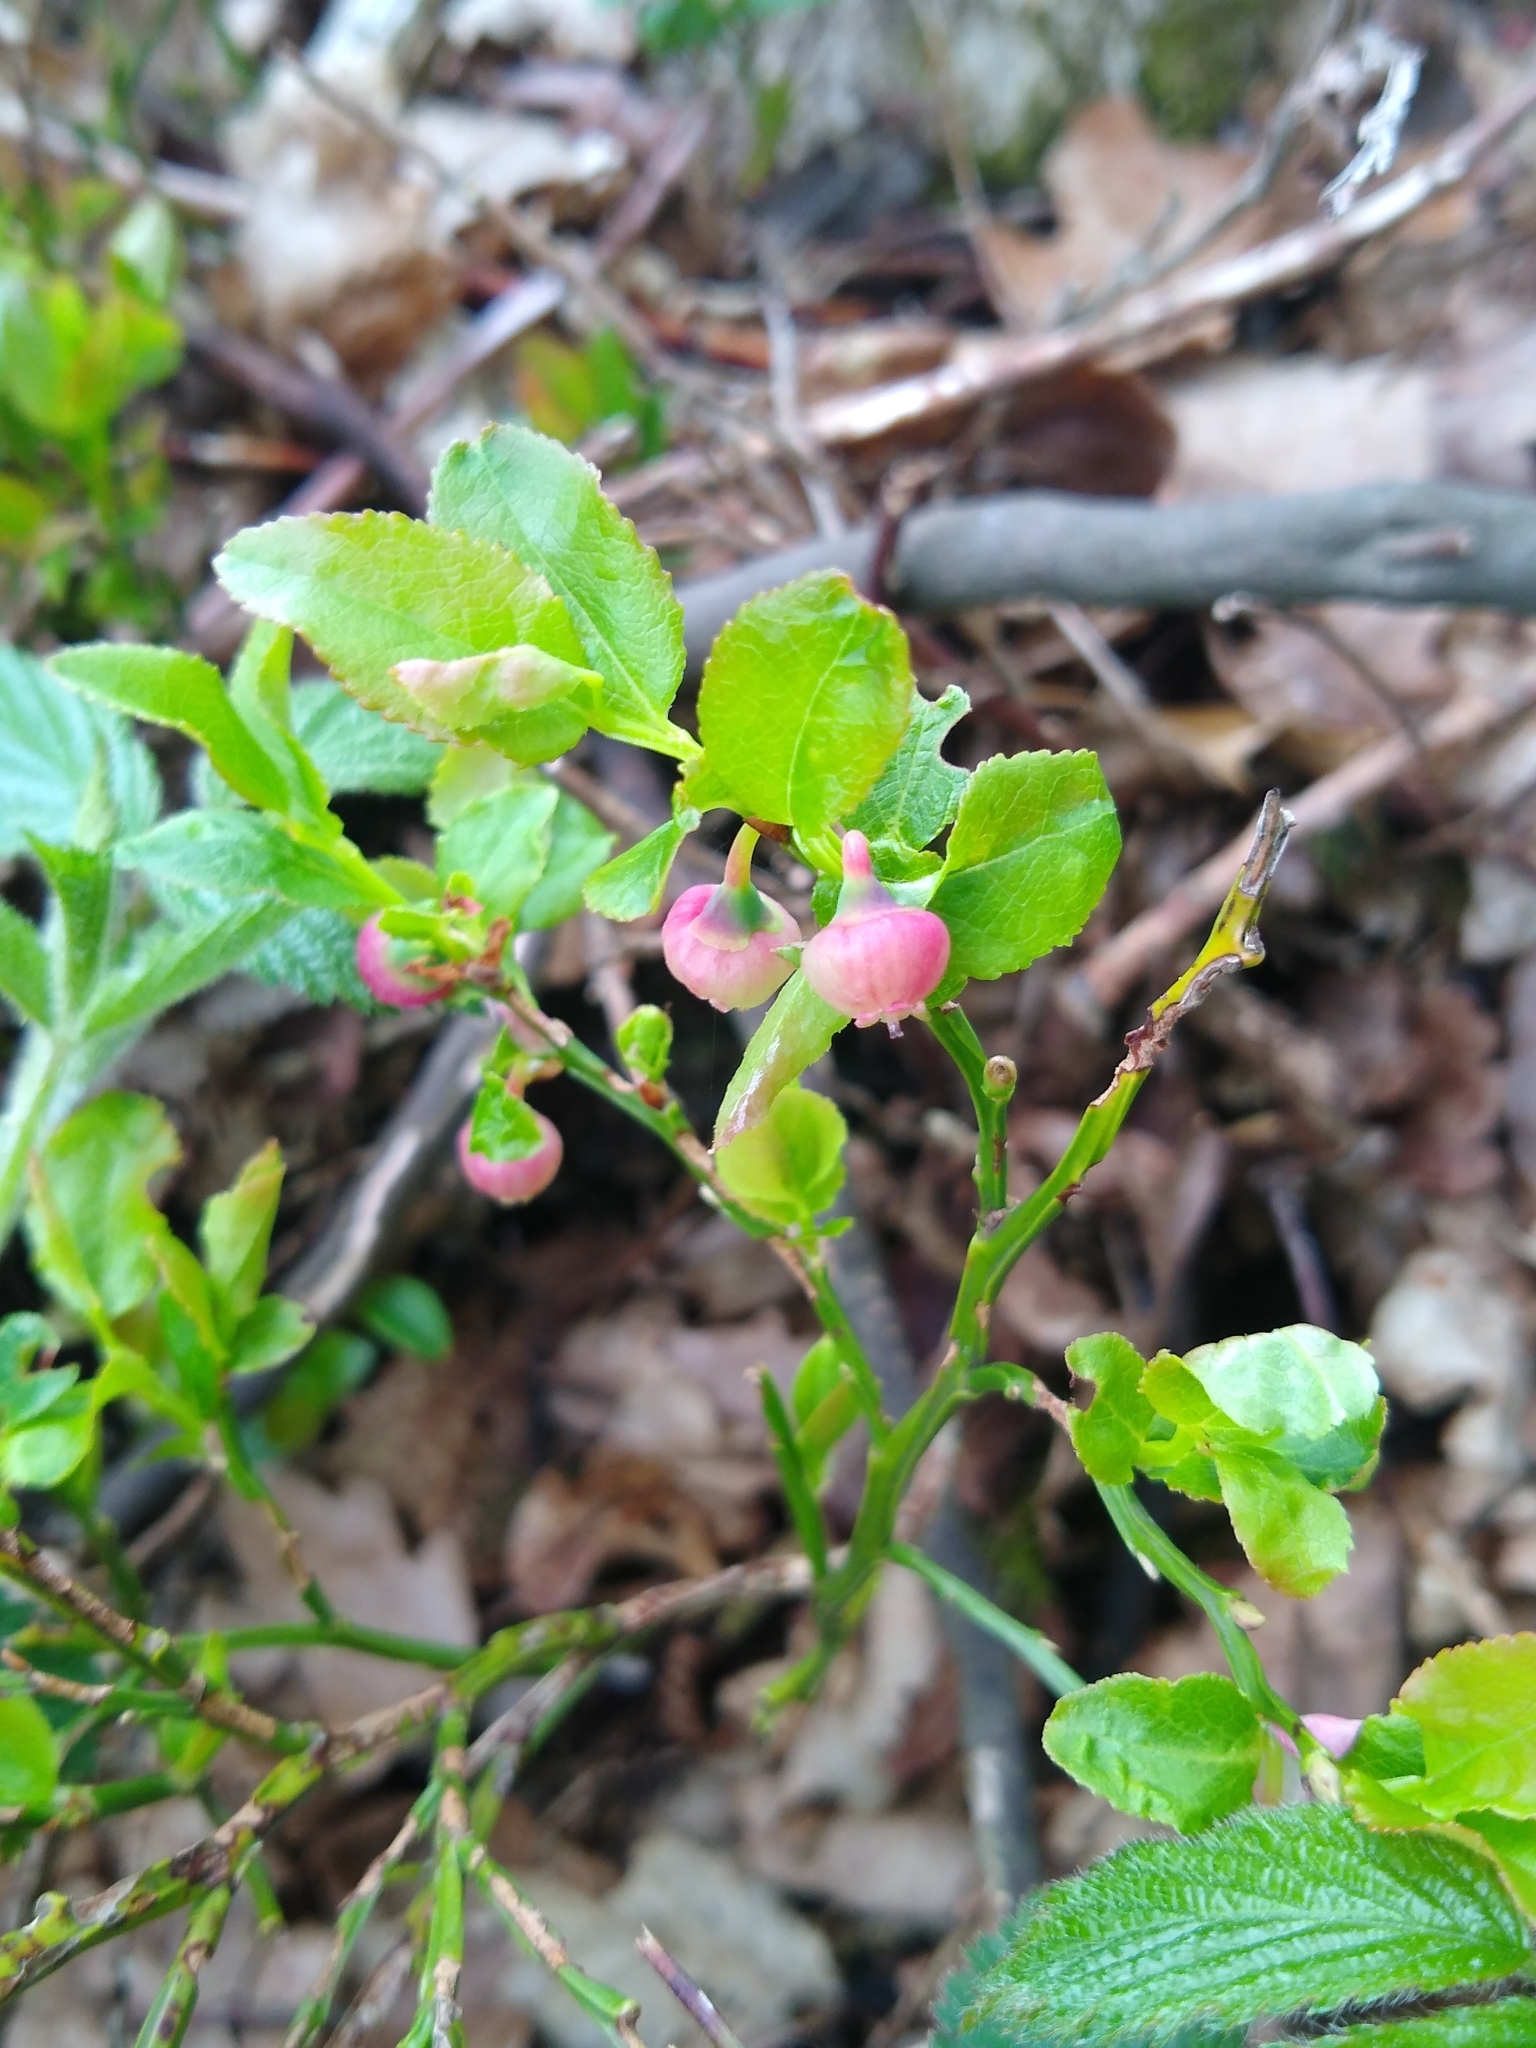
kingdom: Plantae
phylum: Tracheophyta
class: Magnoliopsida
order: Ericales
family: Ericaceae
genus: Vaccinium
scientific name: Vaccinium myrtillus
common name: Bilberry
